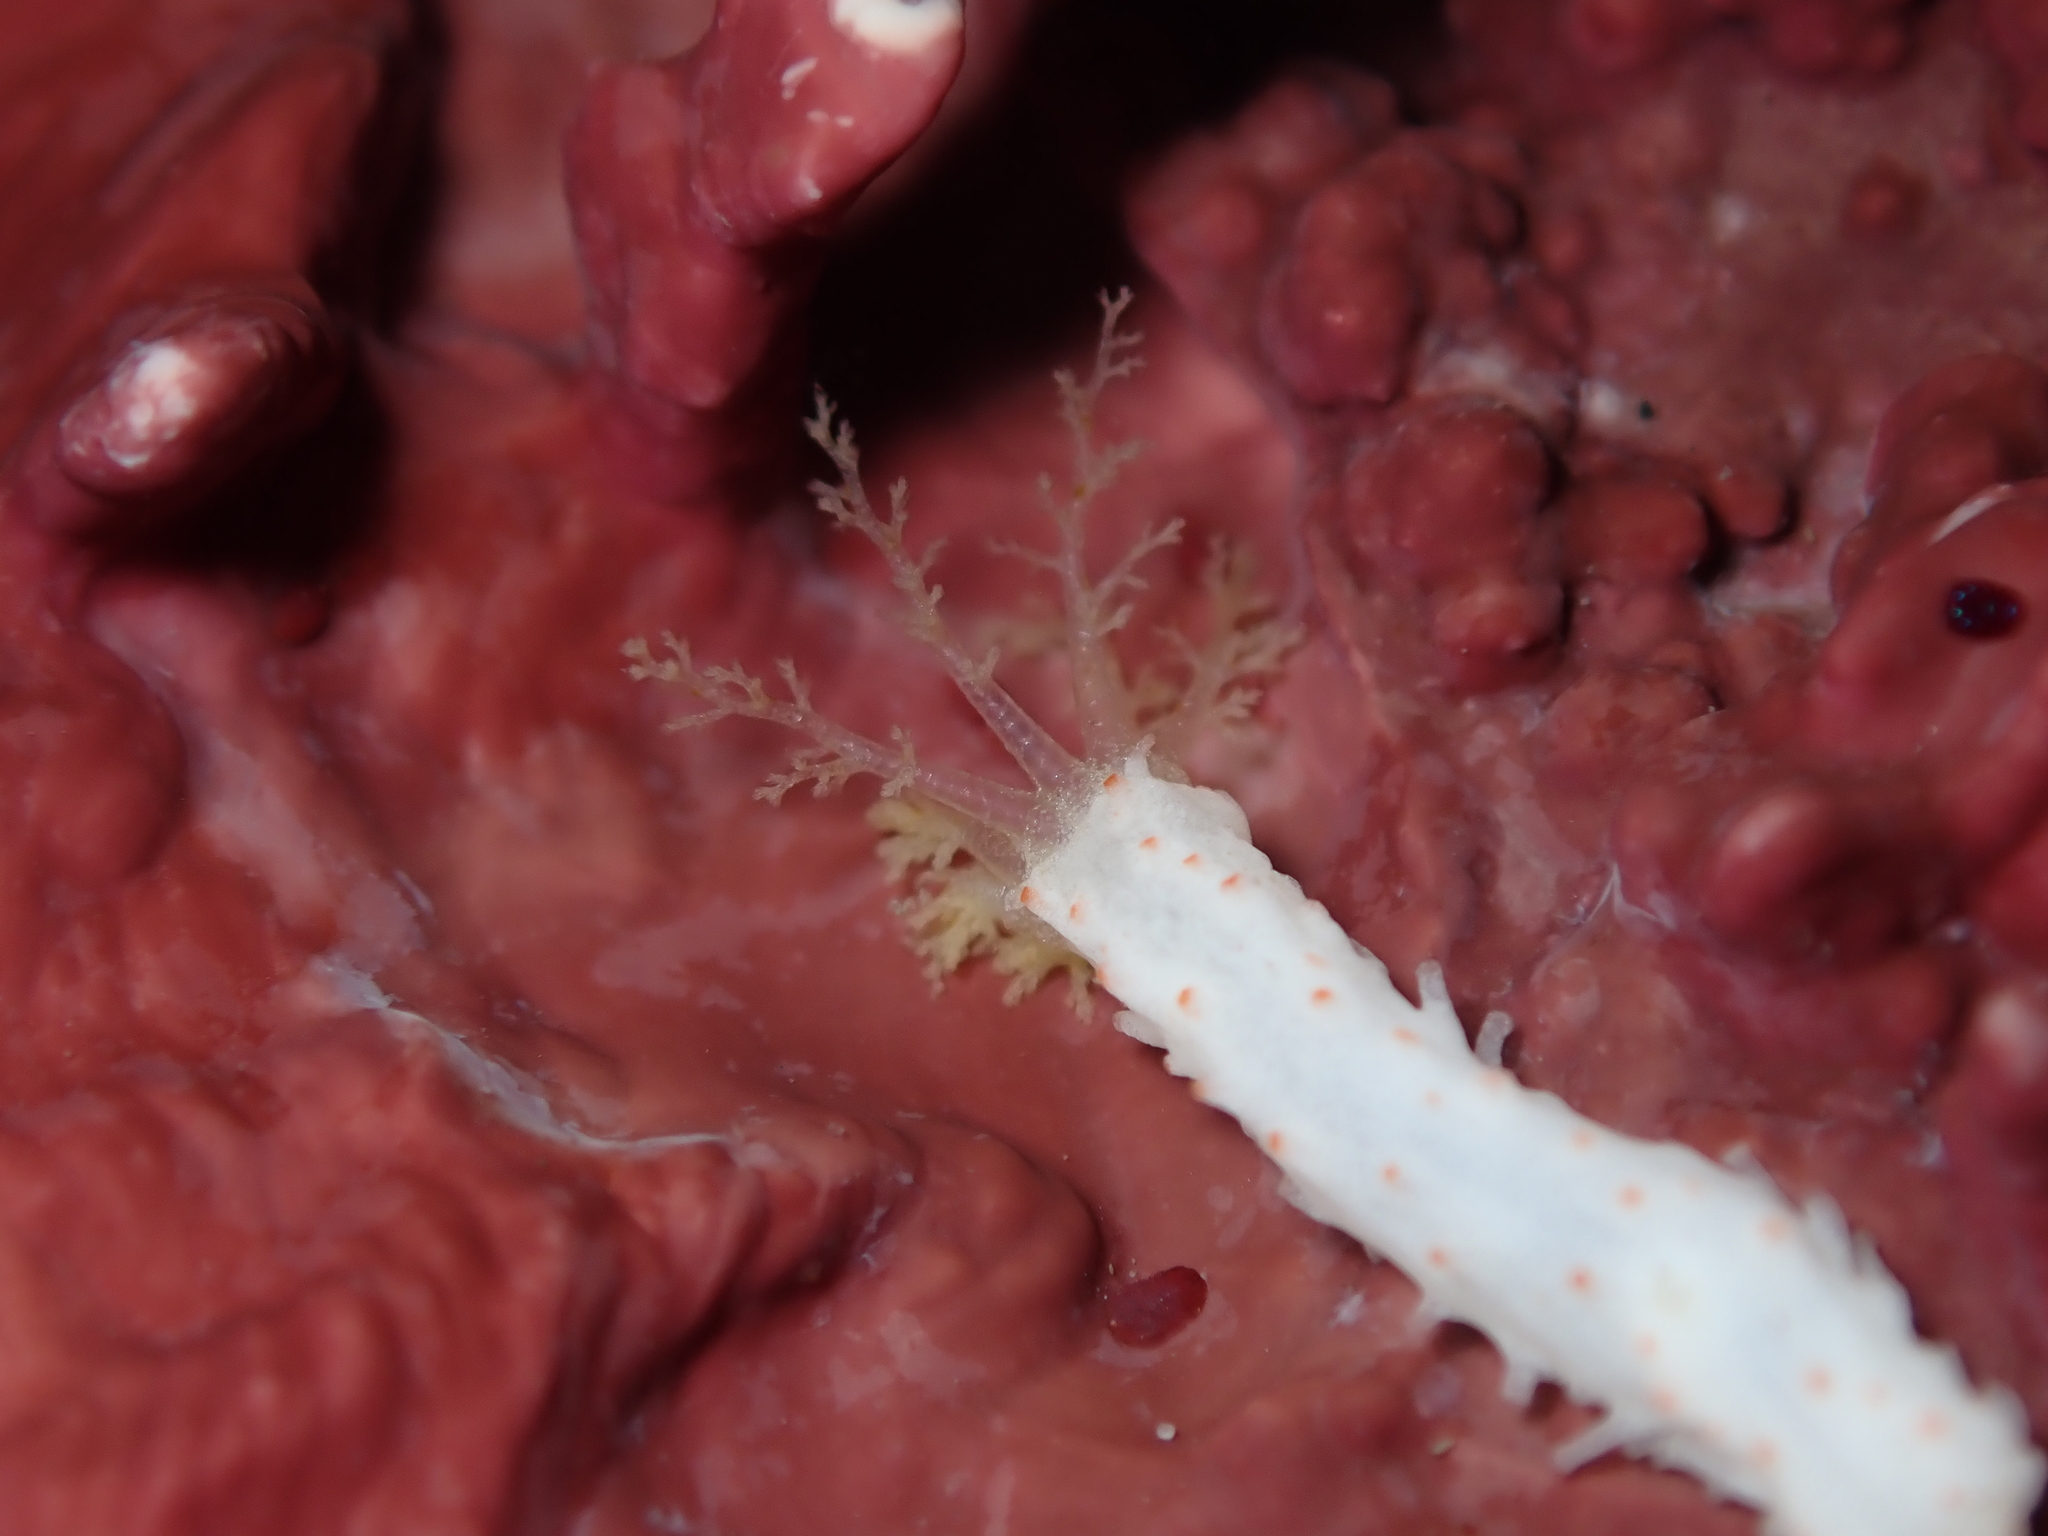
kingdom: Animalia
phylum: Echinodermata
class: Holothuroidea
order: Dendrochirotida
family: Cucumariidae
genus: Australocnus
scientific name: Australocnus calcareus
